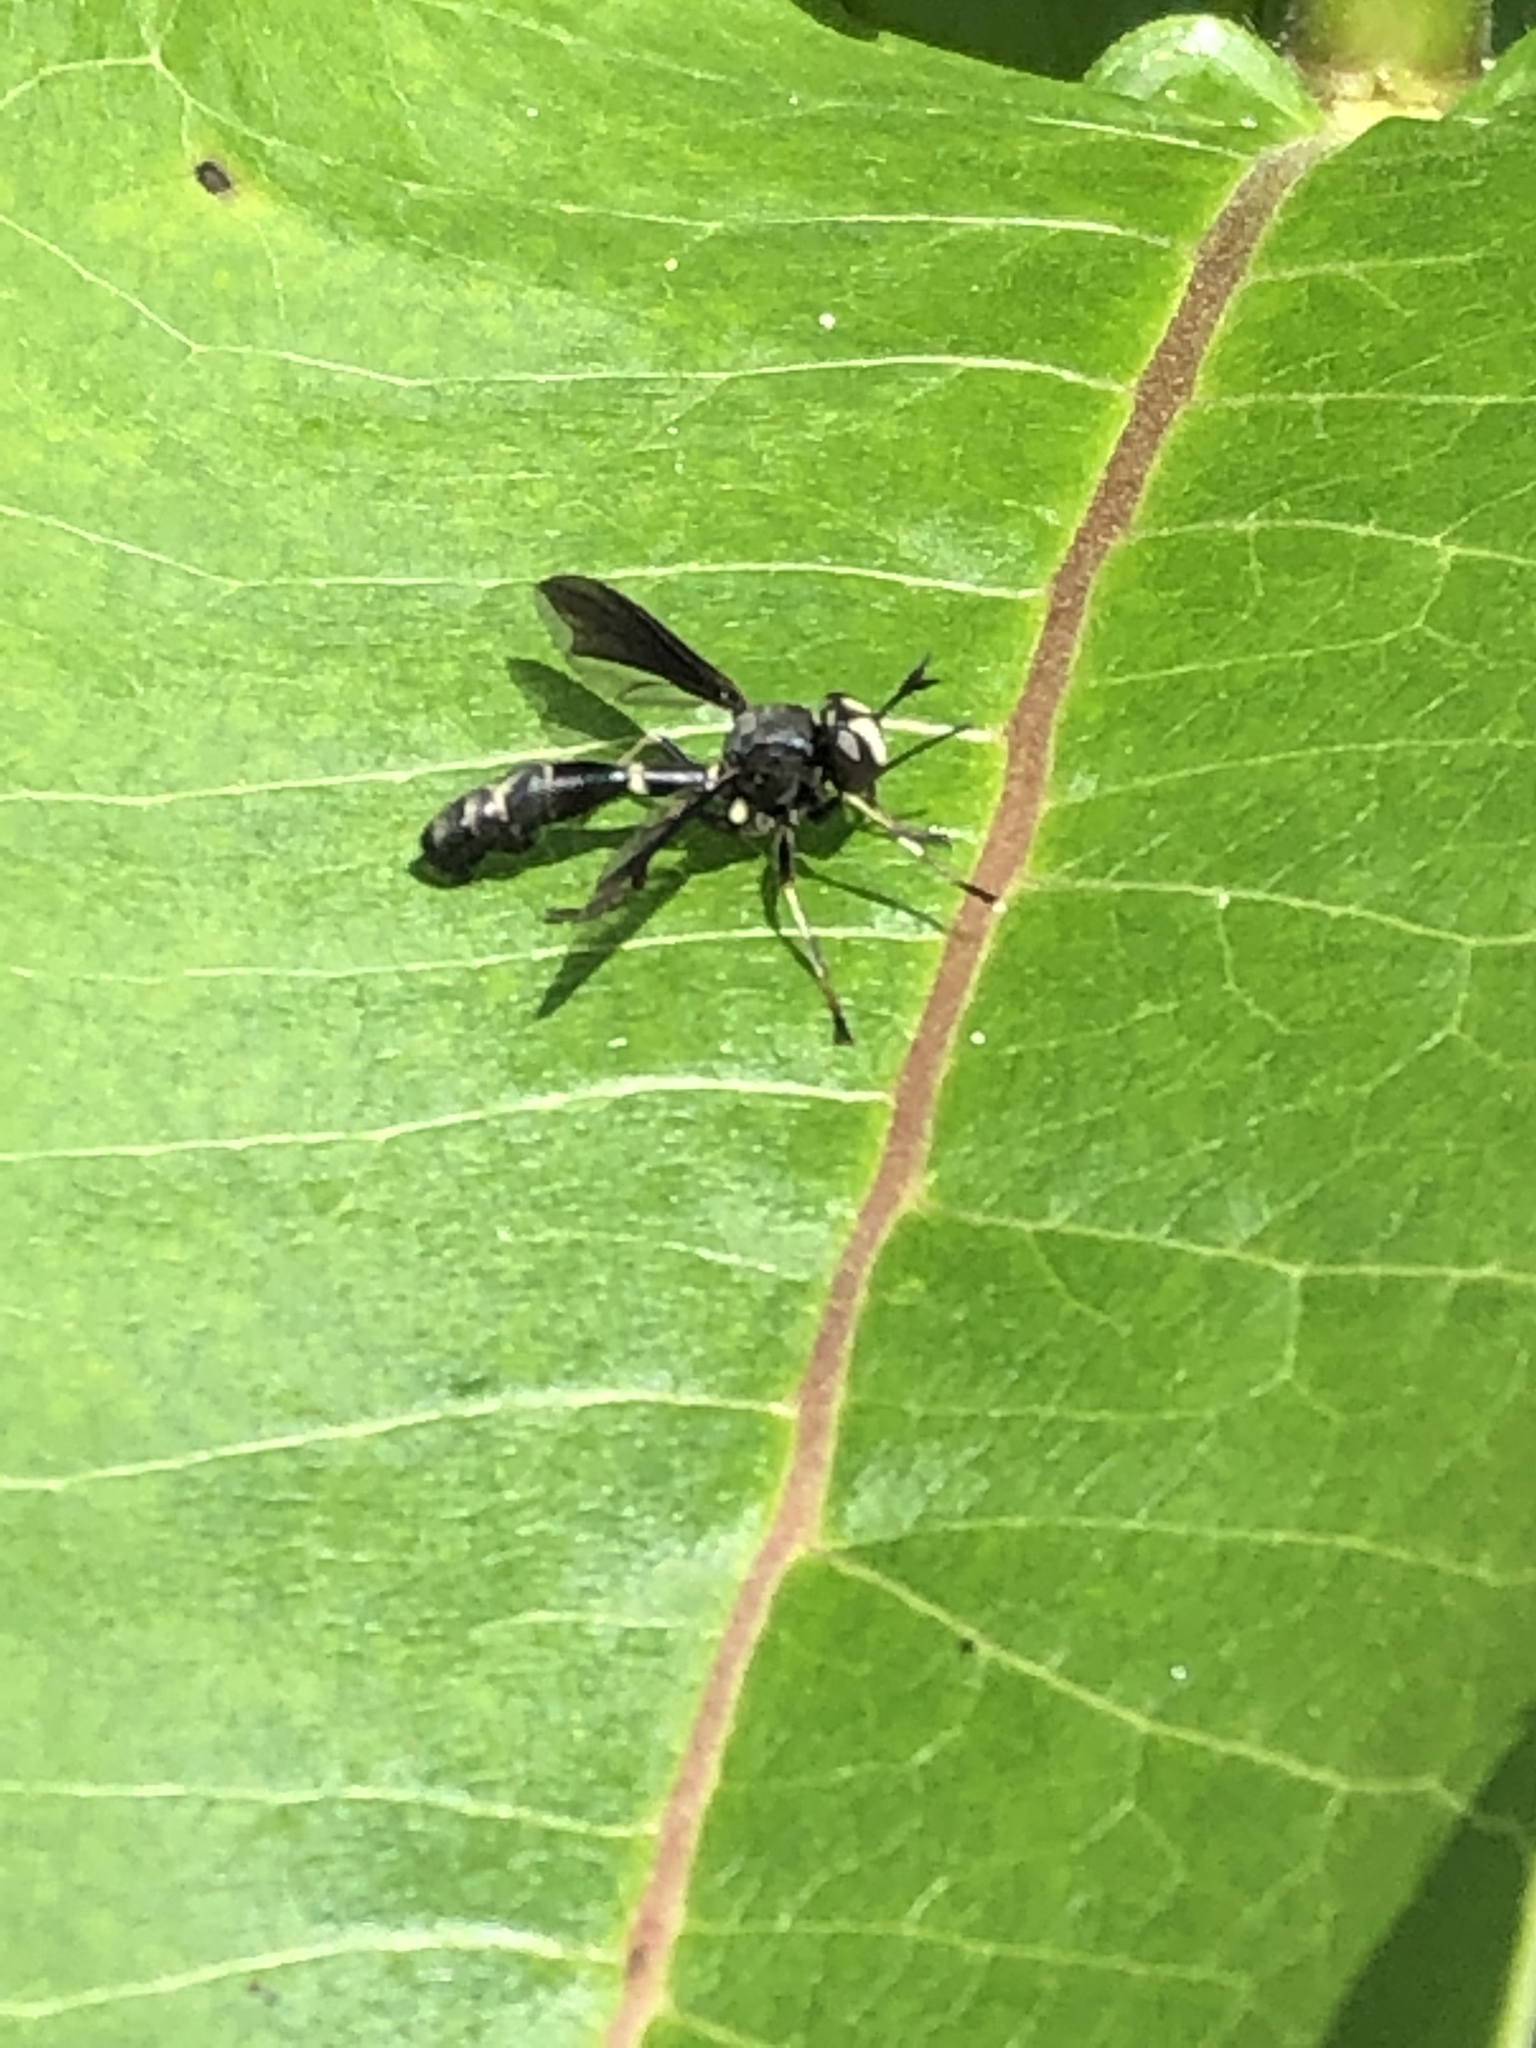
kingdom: Animalia
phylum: Arthropoda
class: Insecta
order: Diptera
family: Conopidae
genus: Physocephala
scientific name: Physocephala tibialis
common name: Common eastern physocephala
